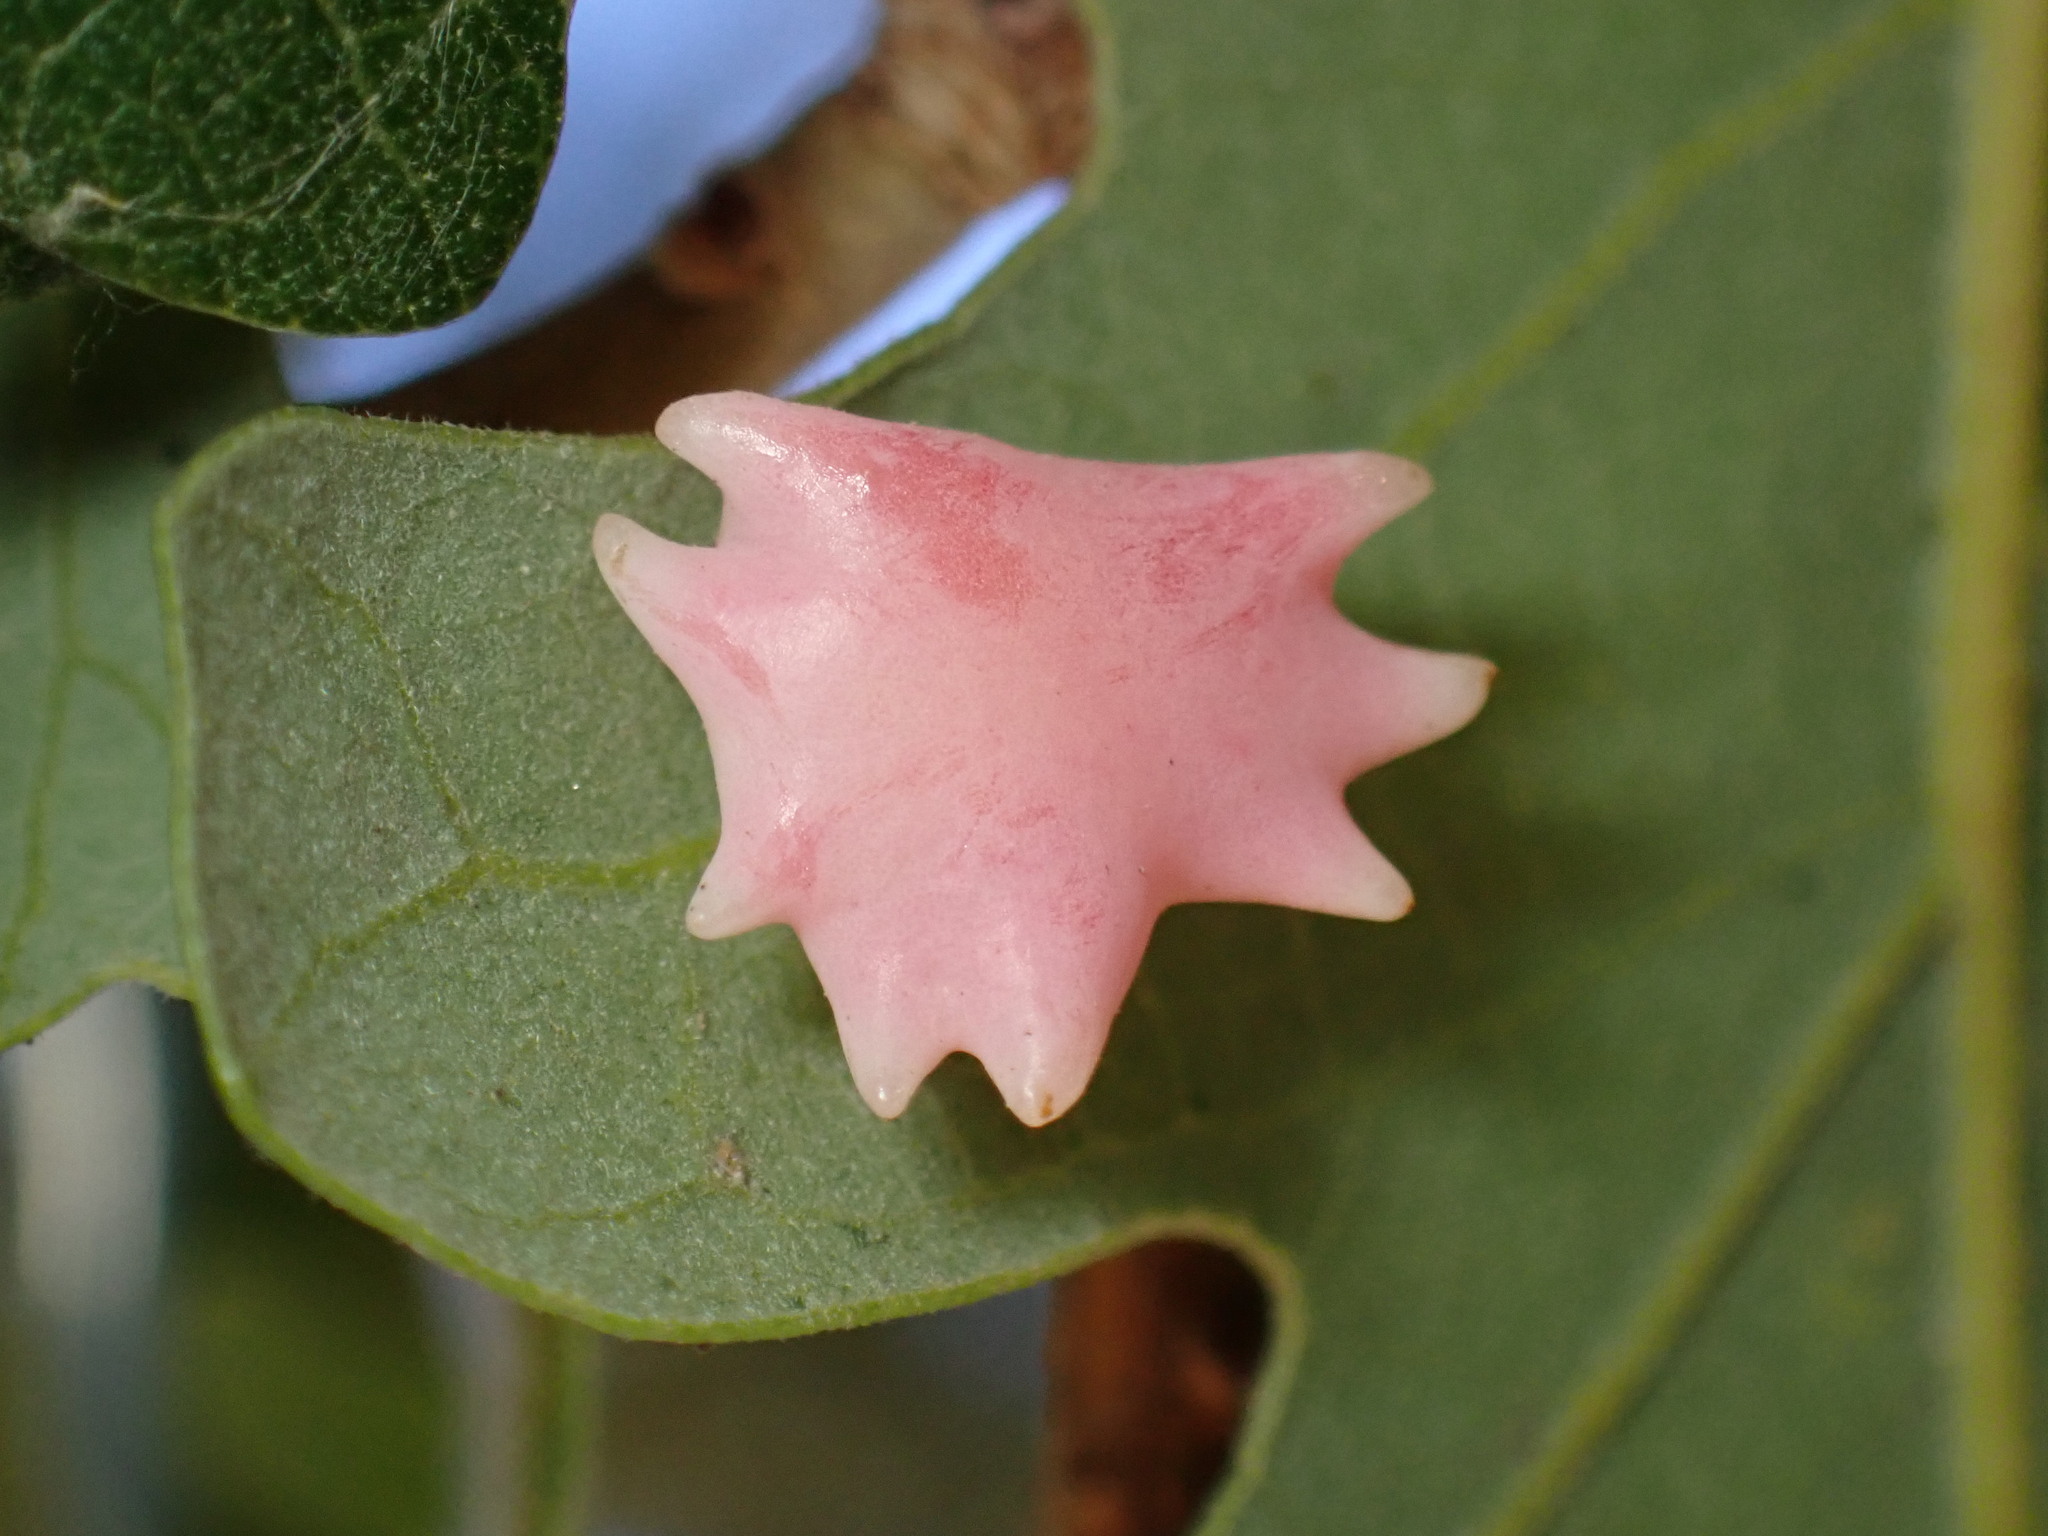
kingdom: Animalia
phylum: Arthropoda
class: Insecta
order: Hymenoptera
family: Cynipidae
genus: Cynips
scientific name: Cynips douglasi
